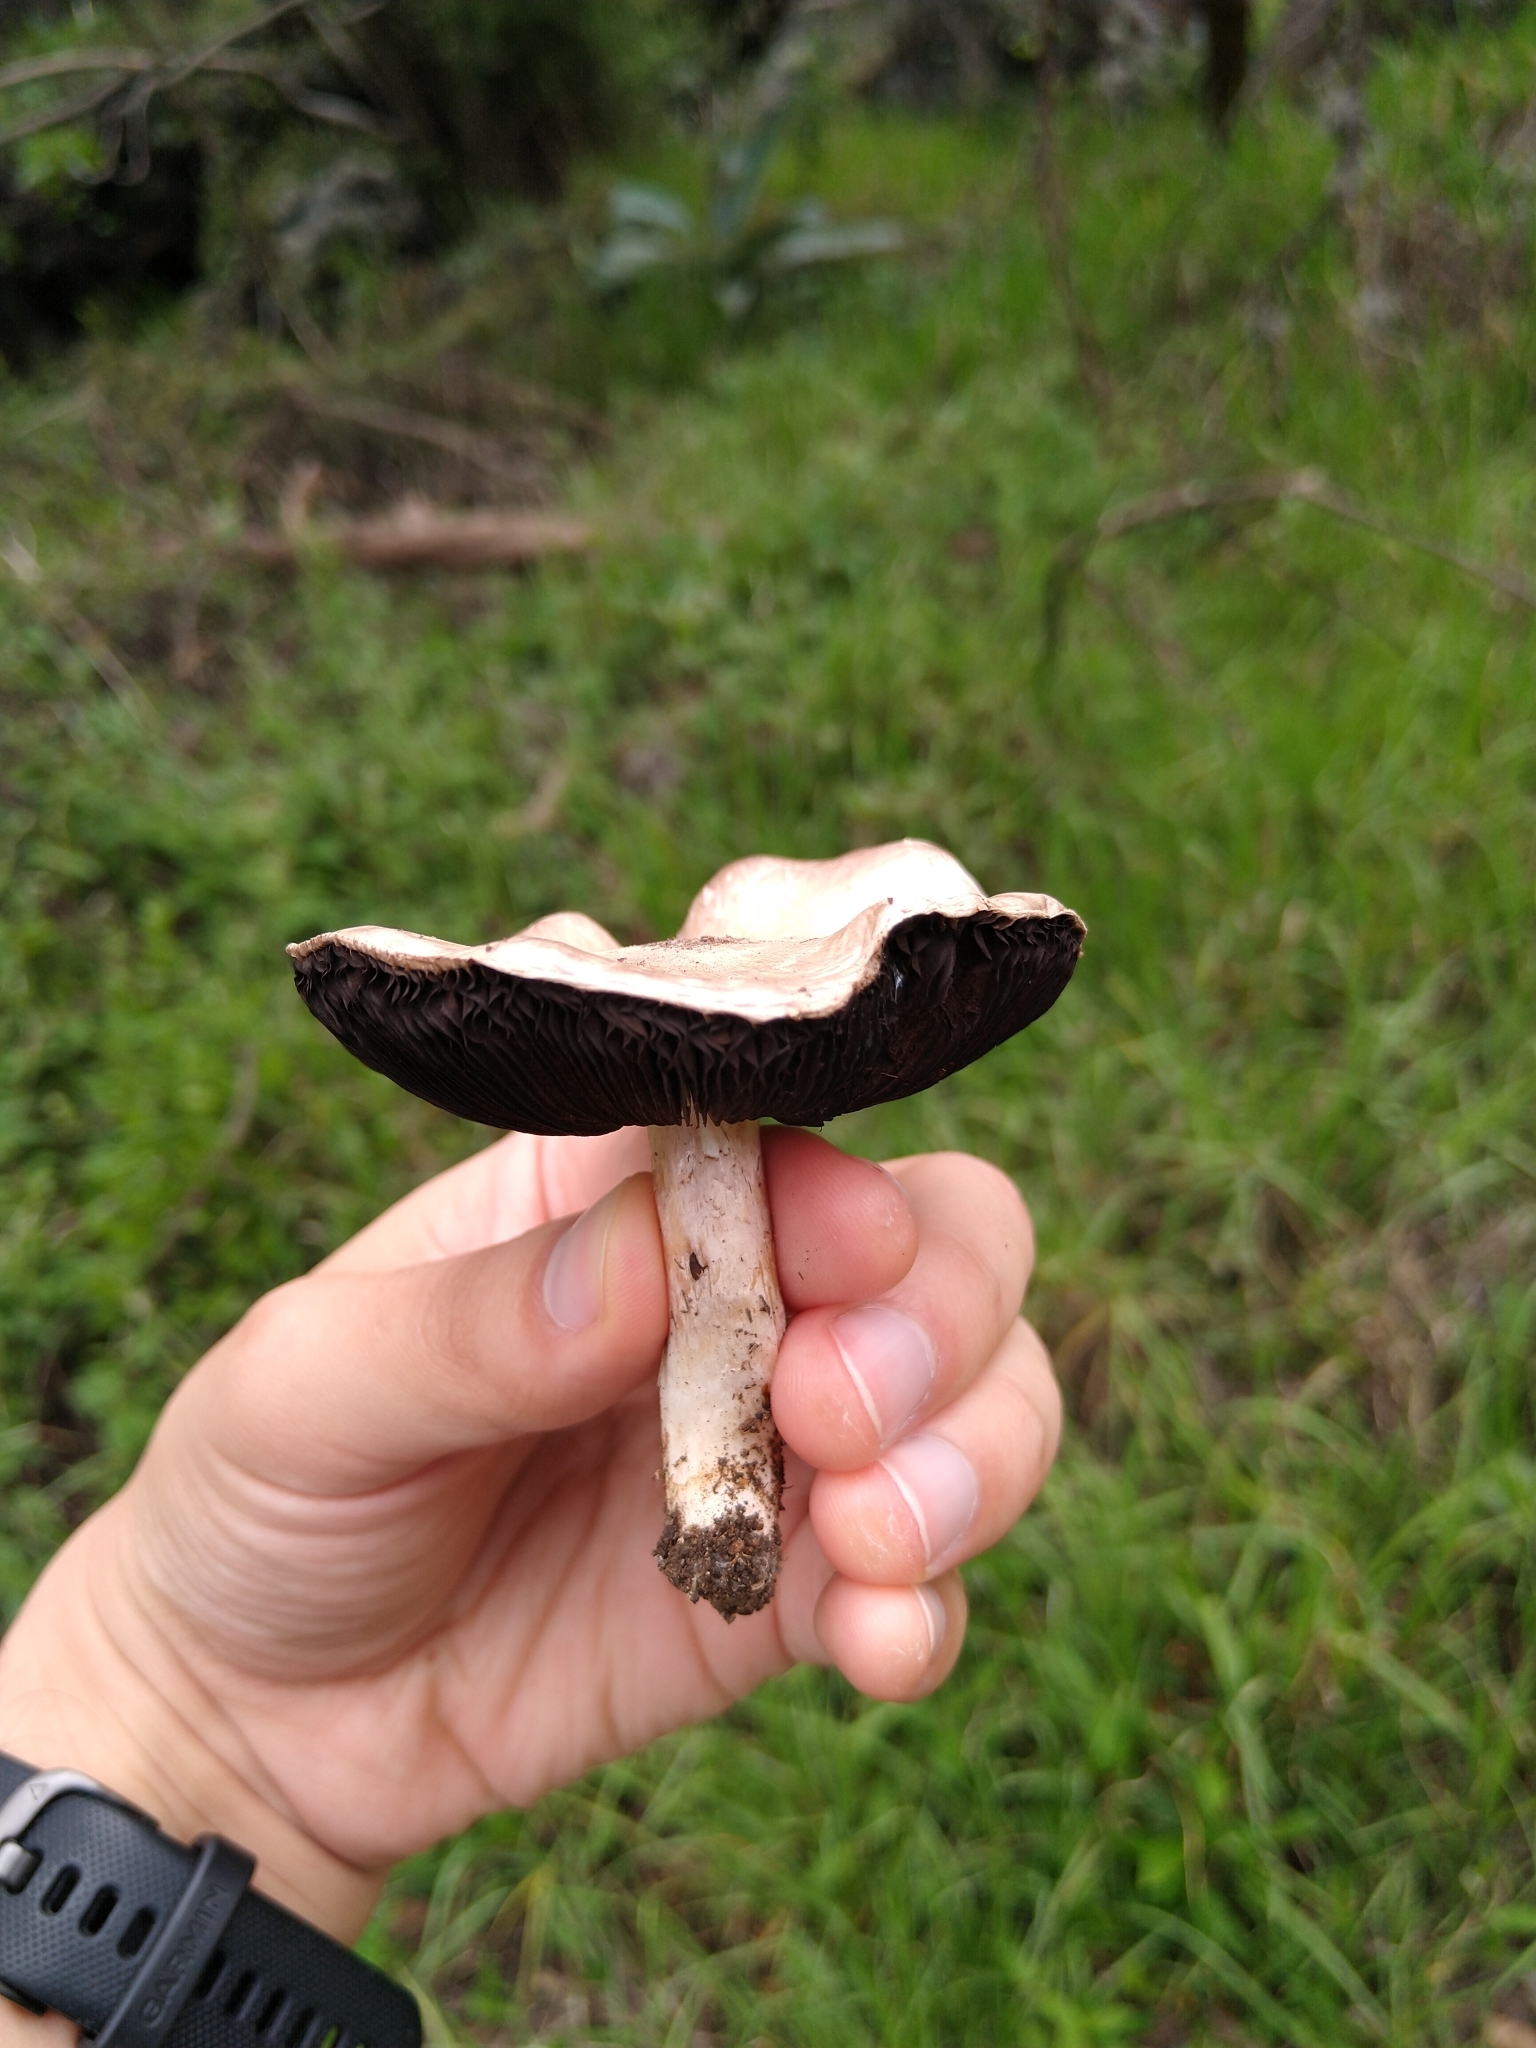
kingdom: Fungi
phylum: Basidiomycota
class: Agaricomycetes
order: Agaricales
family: Agaricaceae
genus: Agaricus
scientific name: Agaricus campestris
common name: Field mushroom
